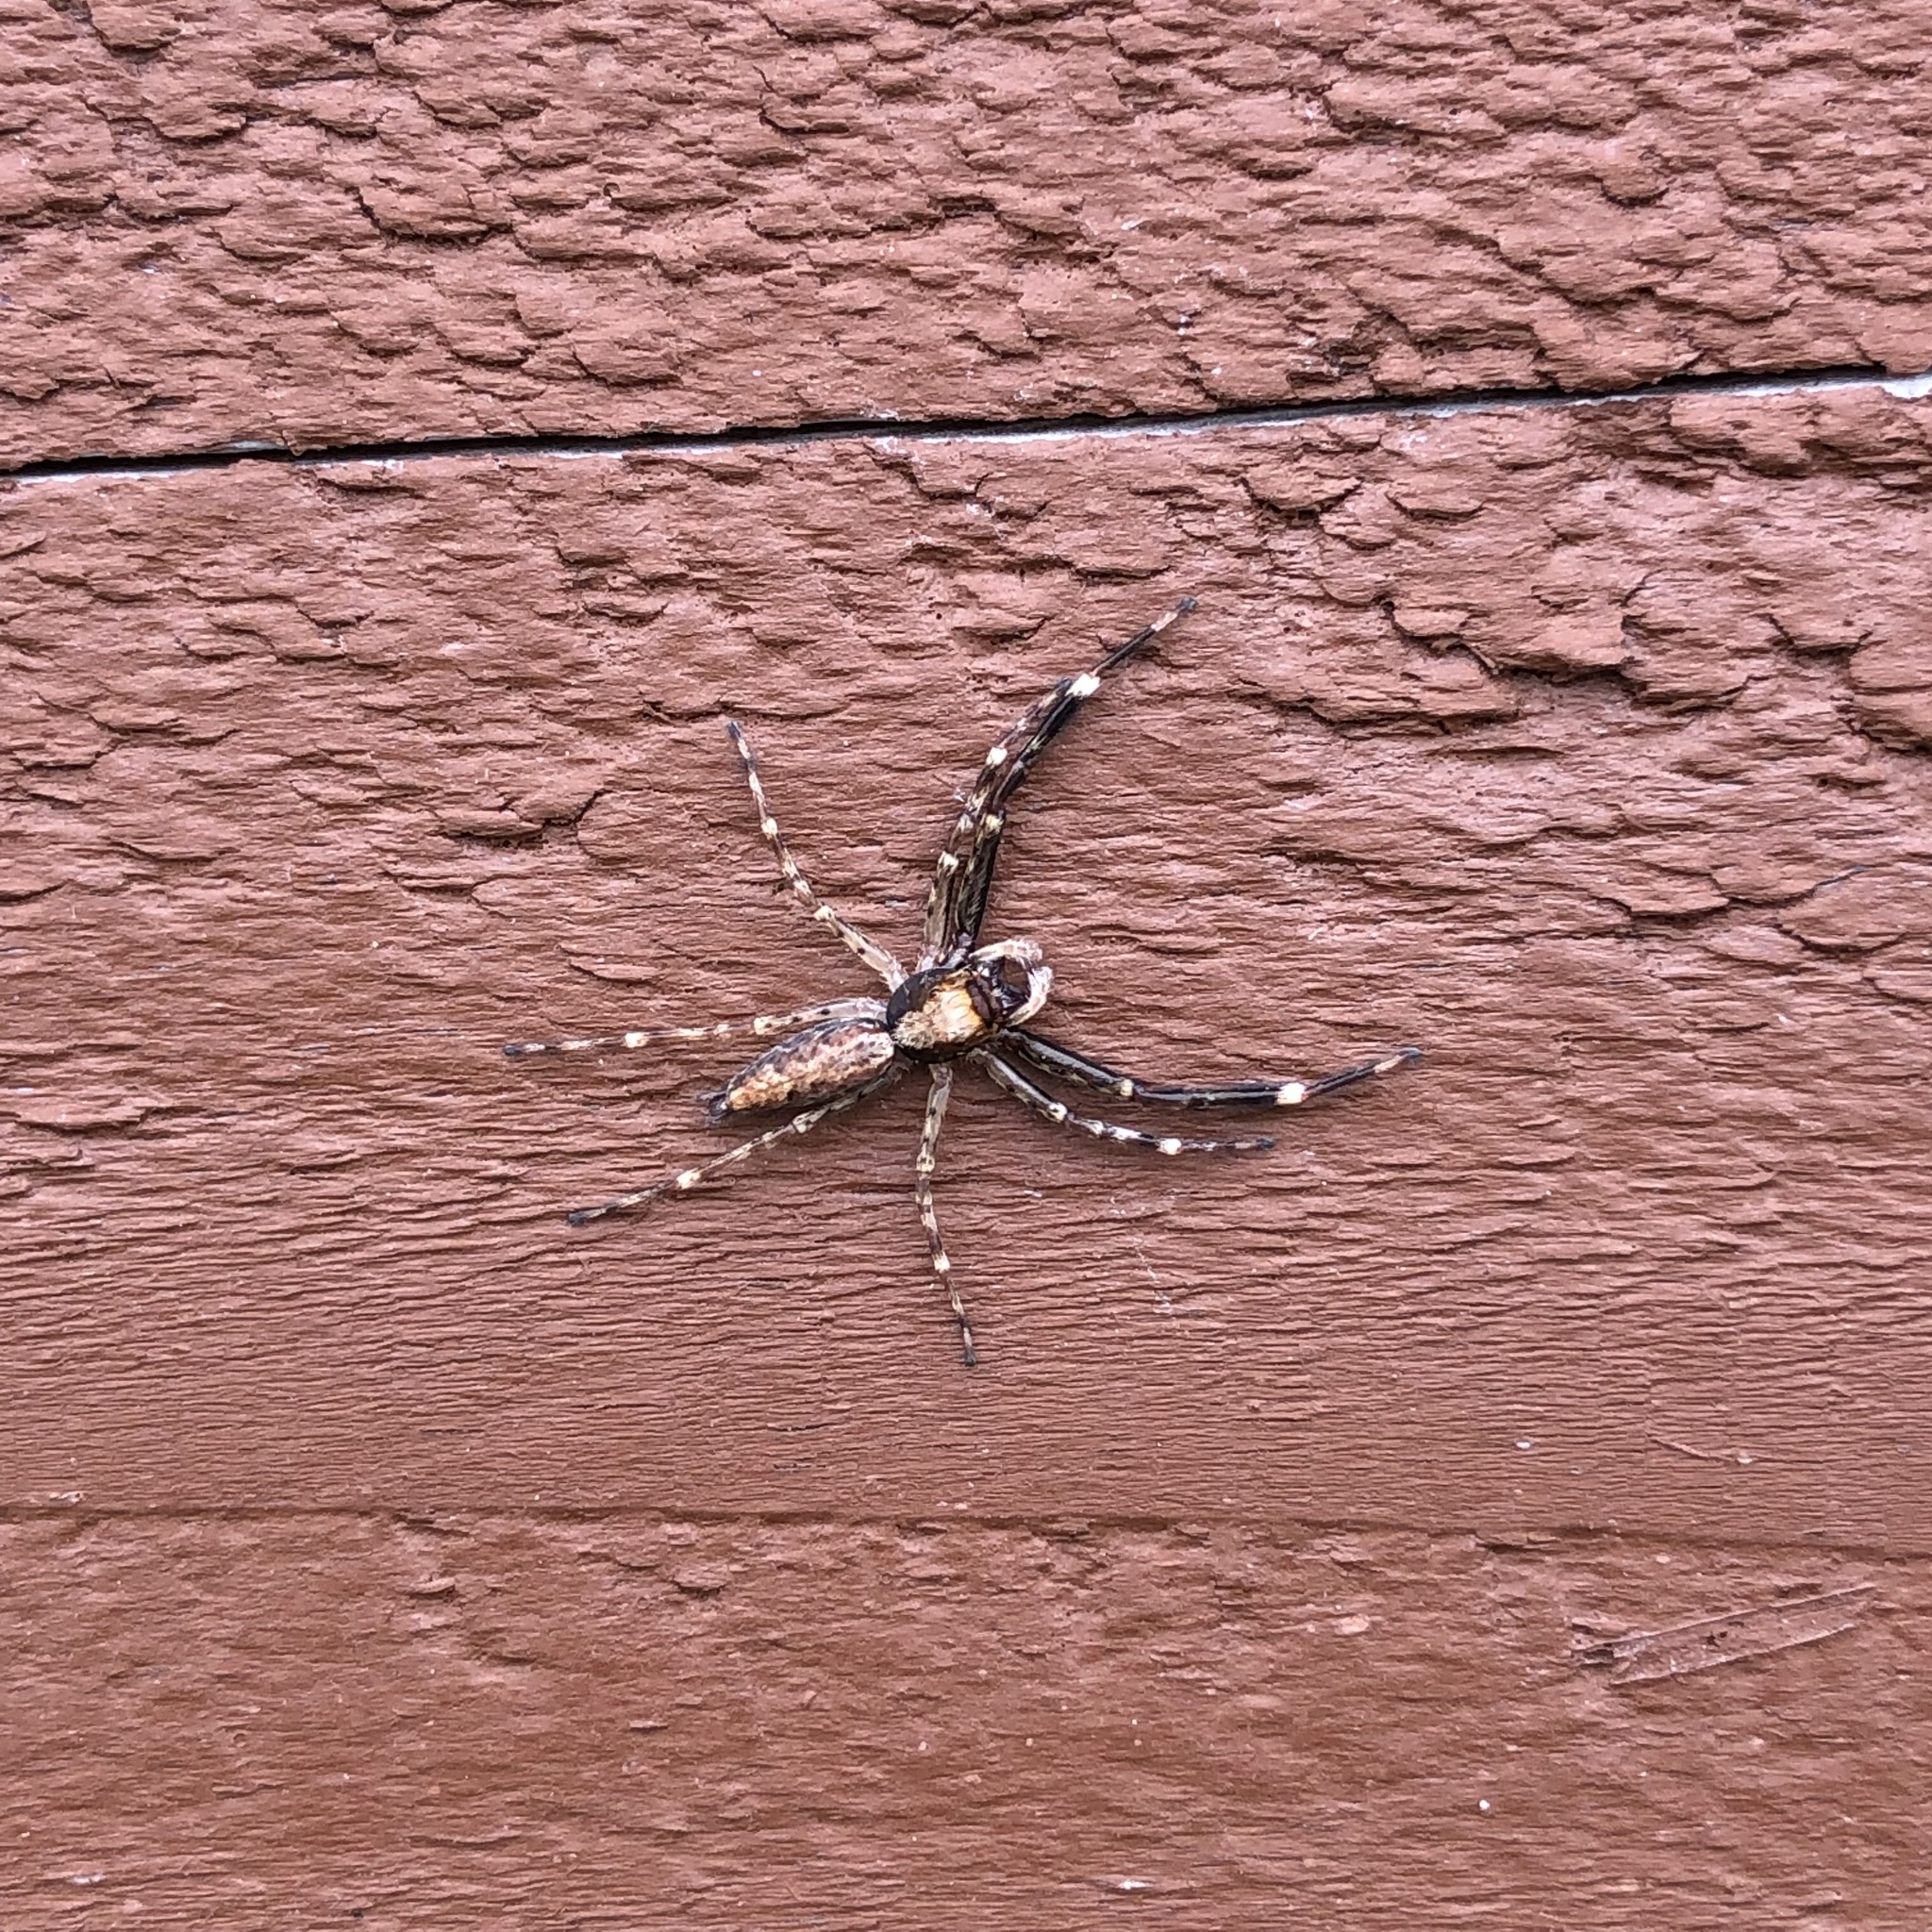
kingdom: Animalia
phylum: Arthropoda
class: Arachnida
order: Araneae
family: Salticidae
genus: Helpis
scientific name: Helpis minitabunda
